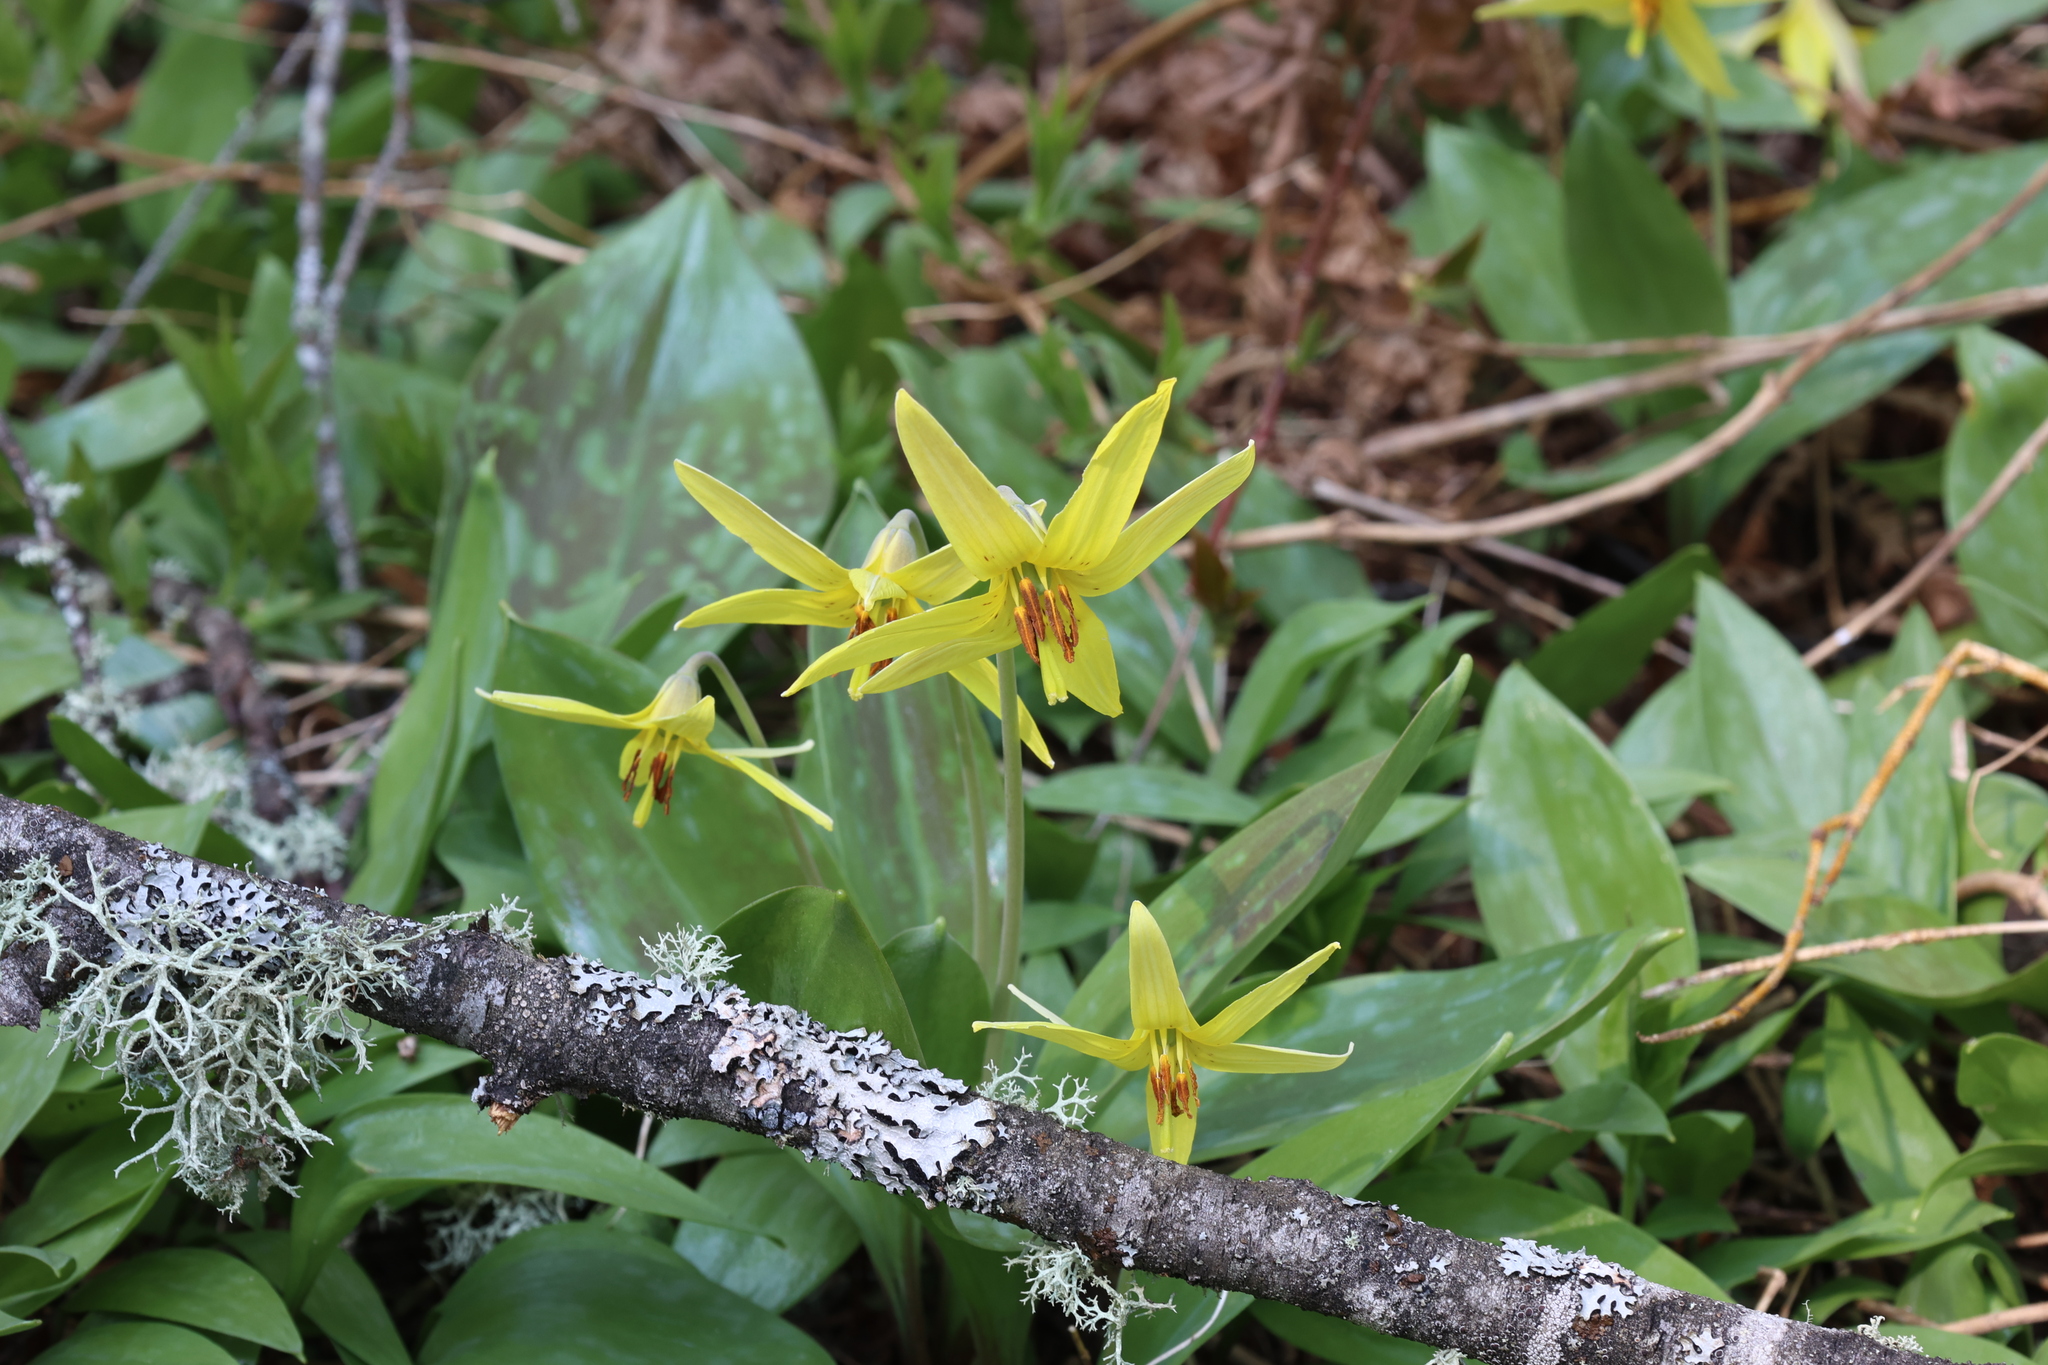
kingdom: Plantae
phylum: Tracheophyta
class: Liliopsida
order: Liliales
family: Liliaceae
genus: Erythronium
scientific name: Erythronium americanum
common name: Yellow adder's-tongue
